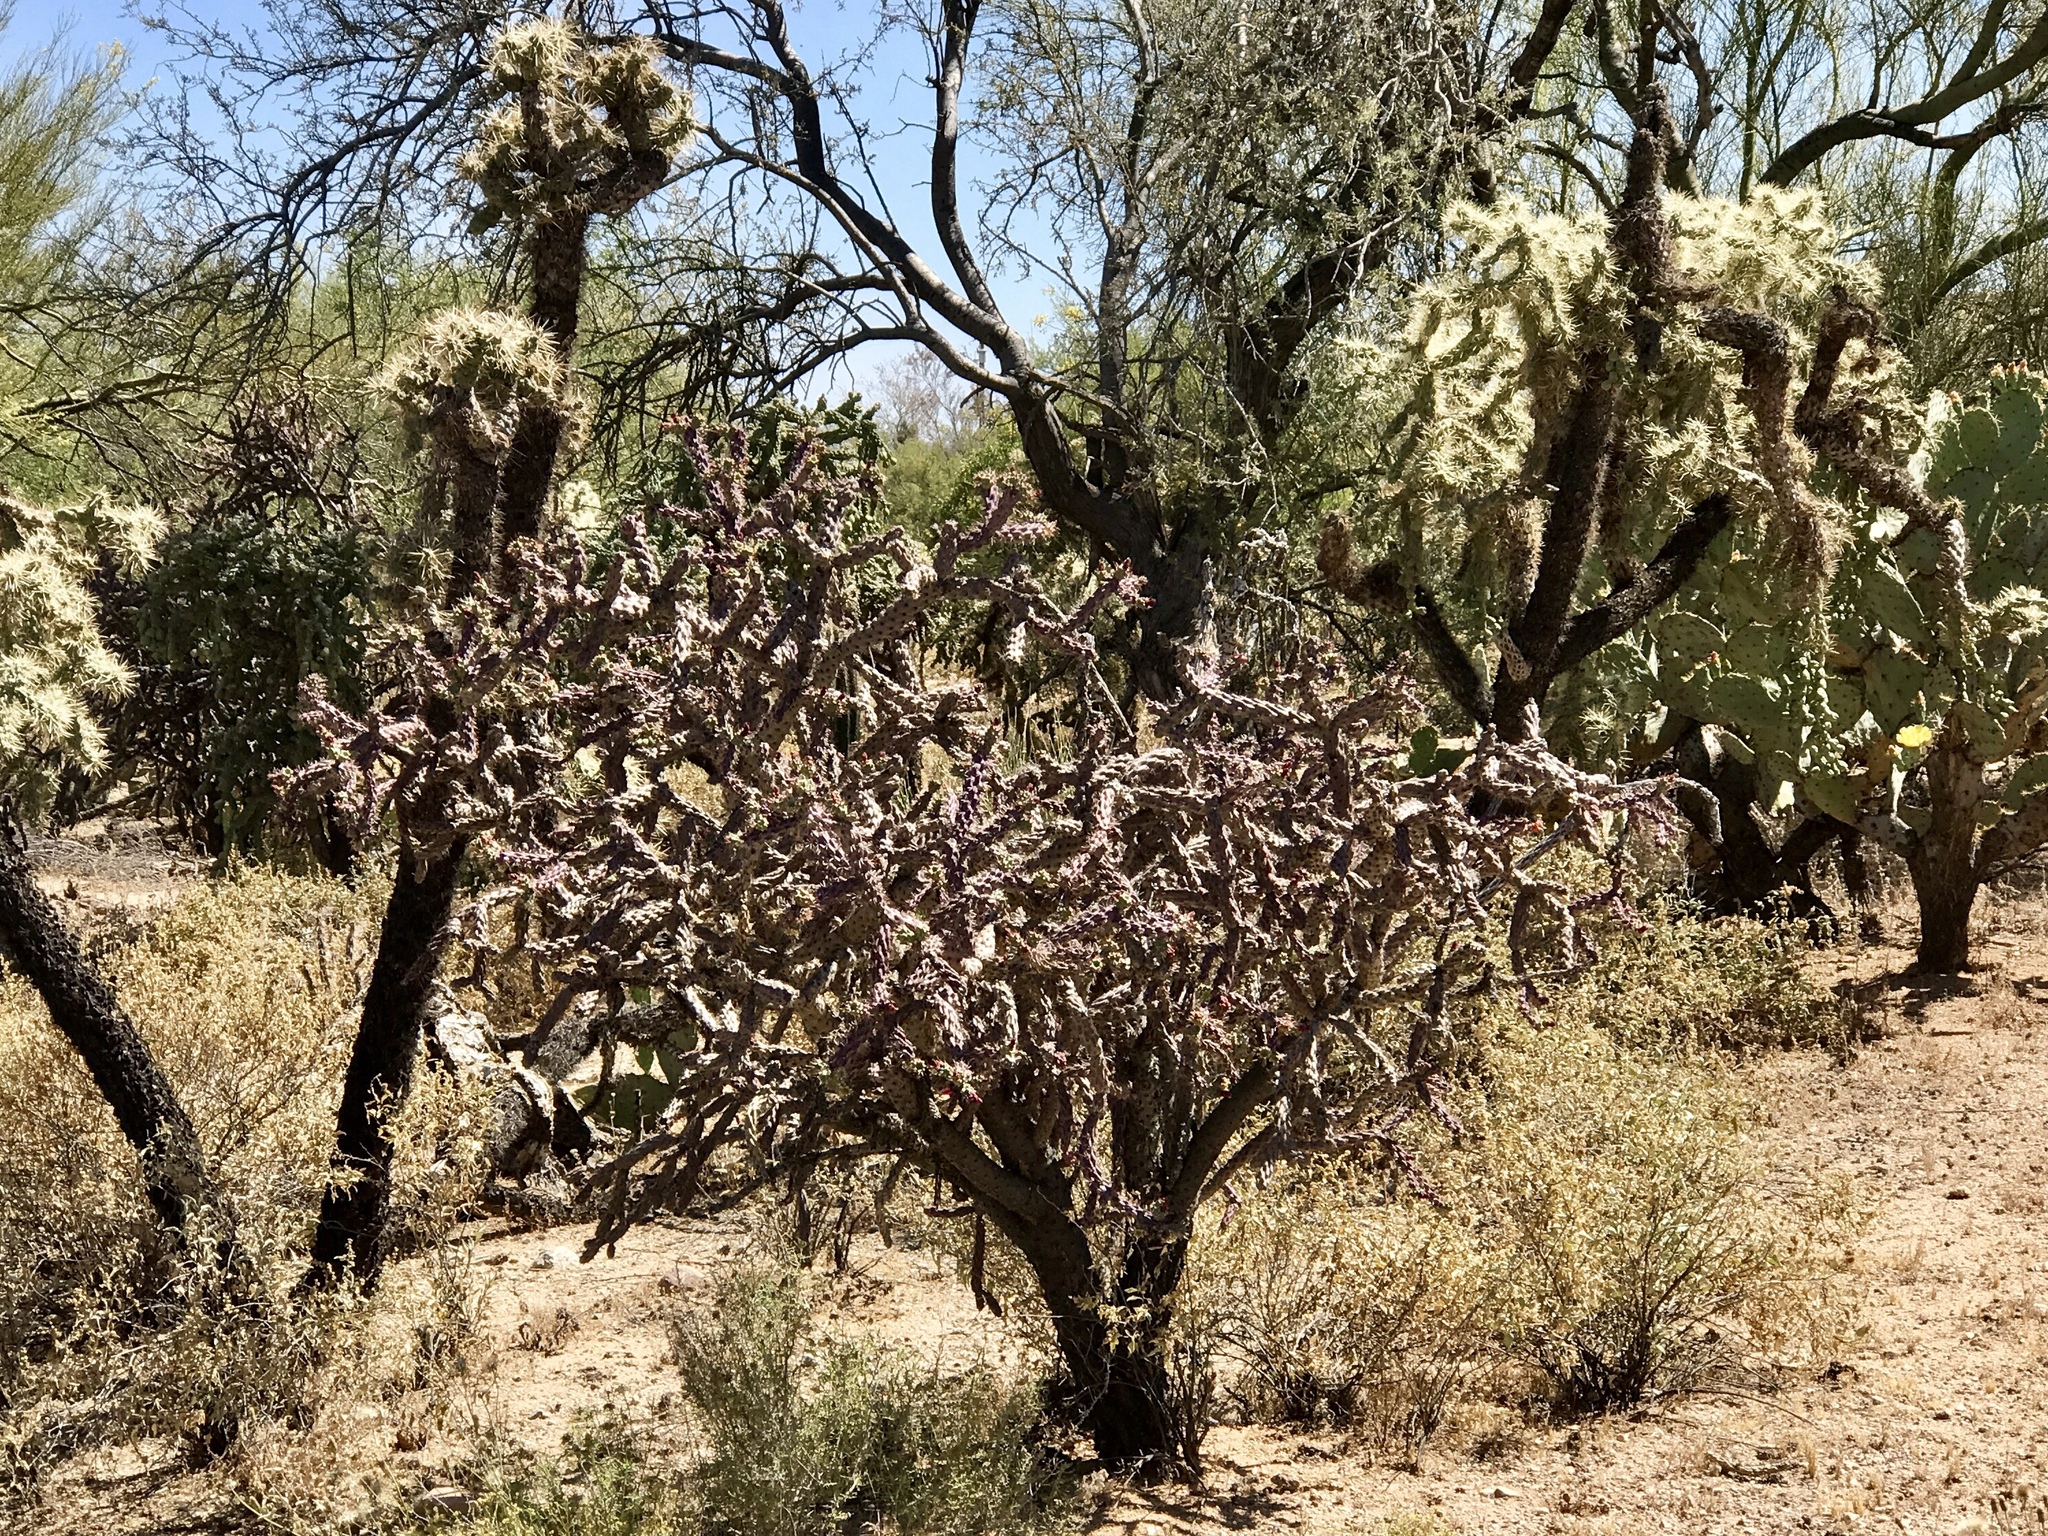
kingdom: Plantae
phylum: Tracheophyta
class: Magnoliopsida
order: Caryophyllales
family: Cactaceae
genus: Cylindropuntia
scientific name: Cylindropuntia thurberi
